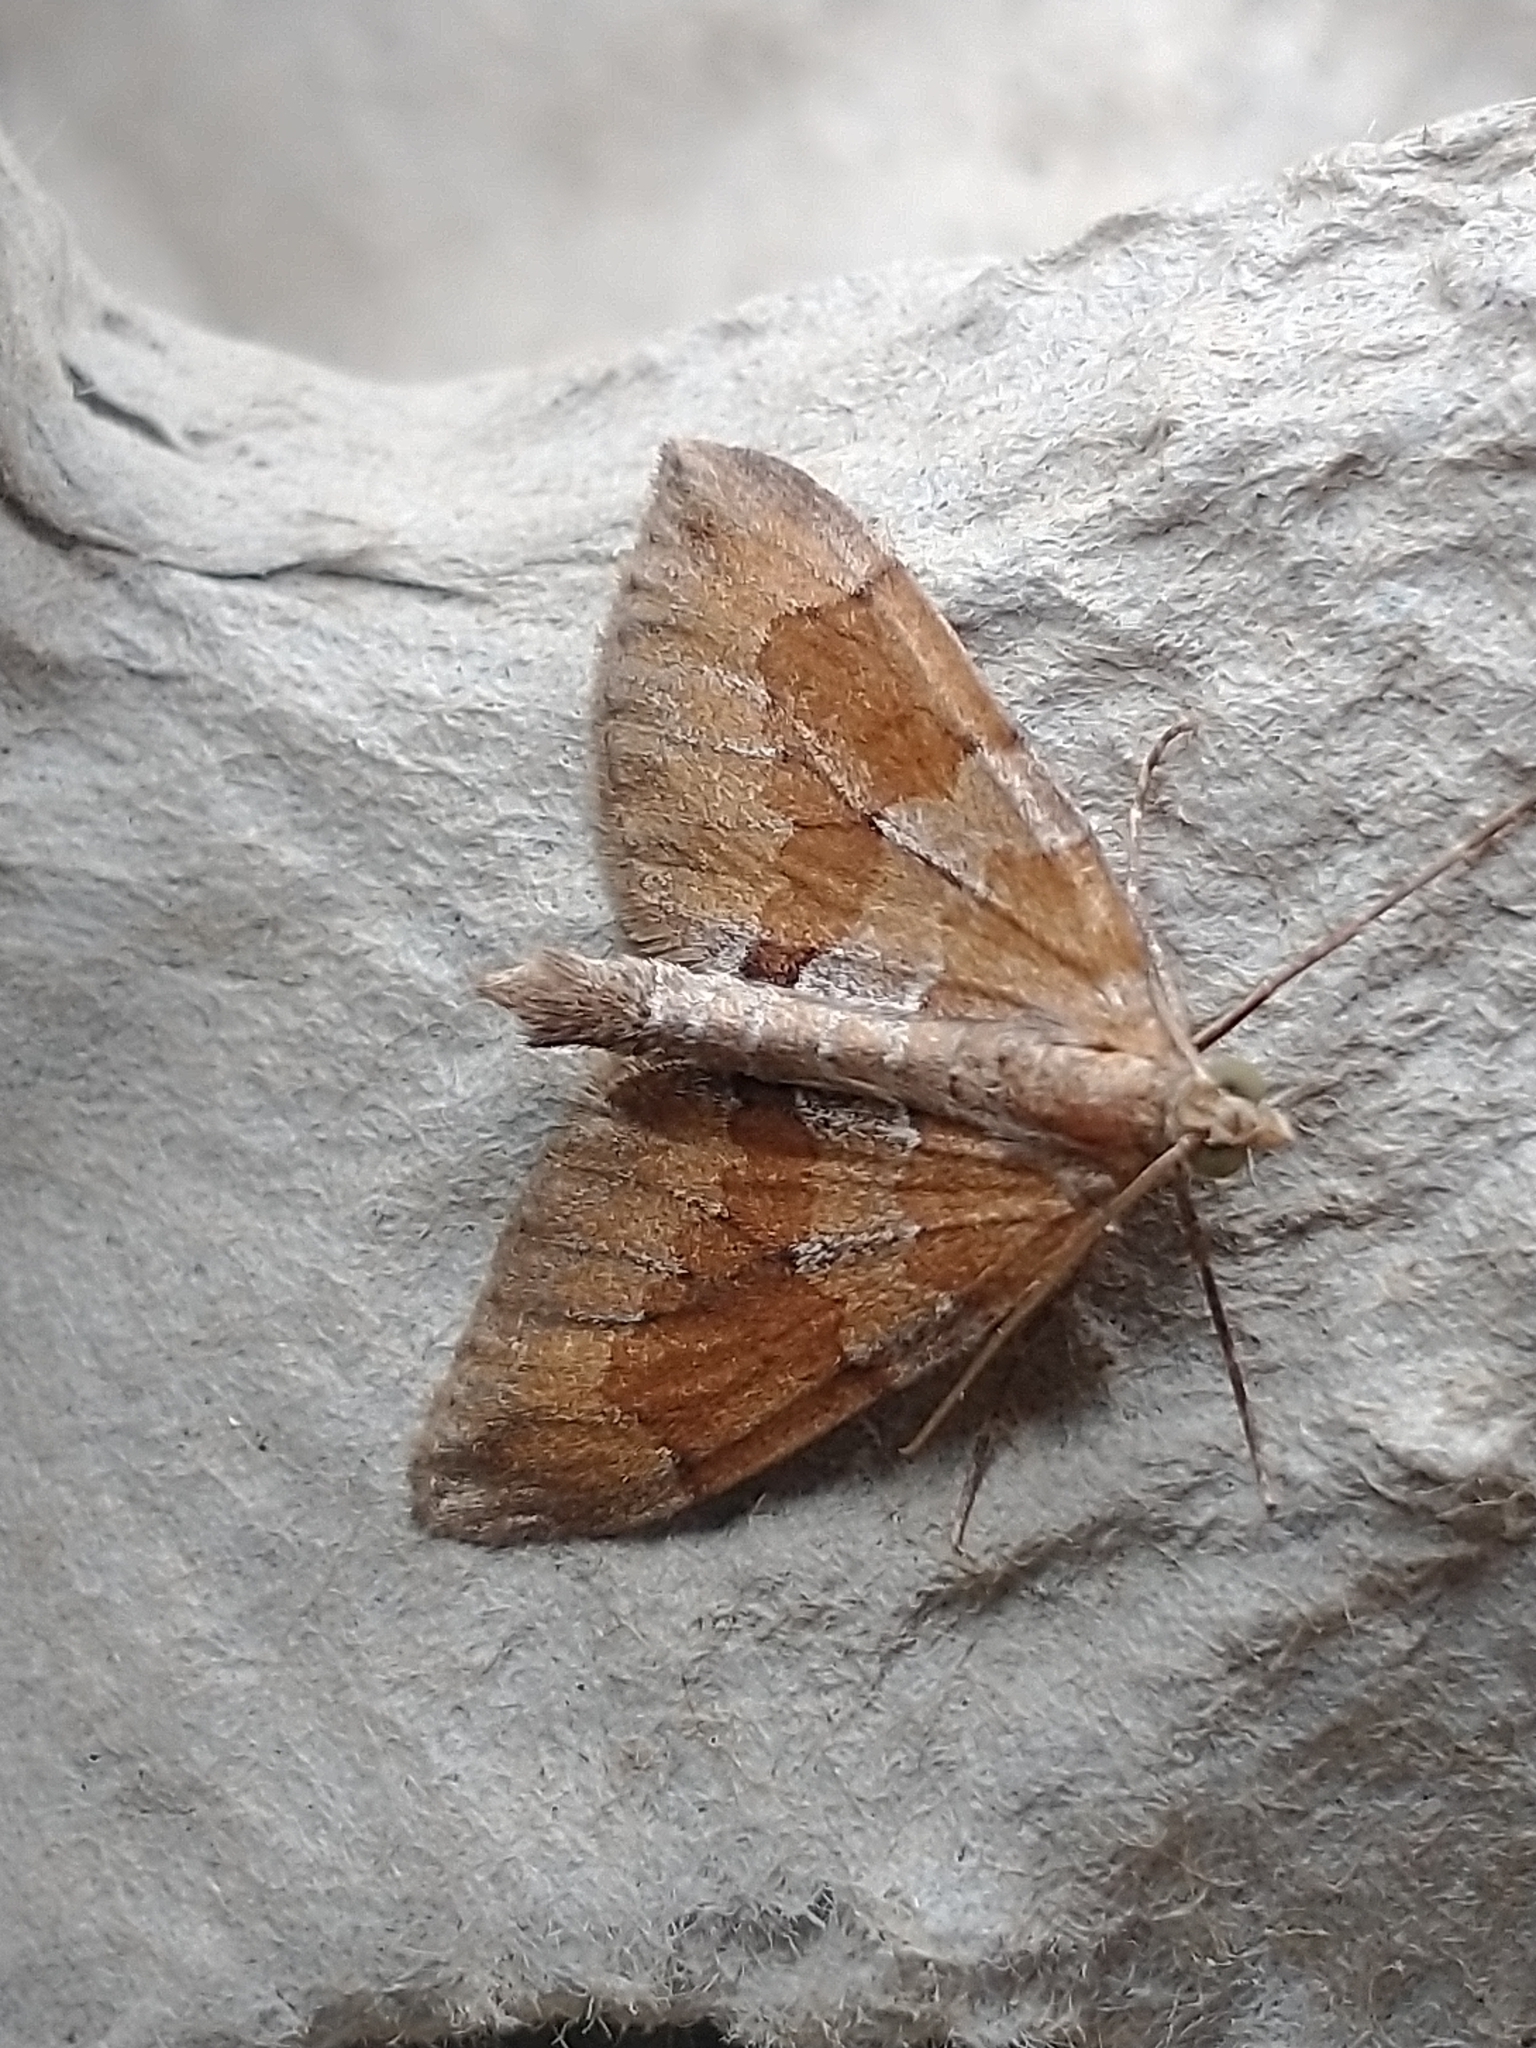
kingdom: Animalia
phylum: Arthropoda
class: Insecta
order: Lepidoptera
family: Geometridae
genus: Thera
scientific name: Thera obeliscata
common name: Grey pine carpet
